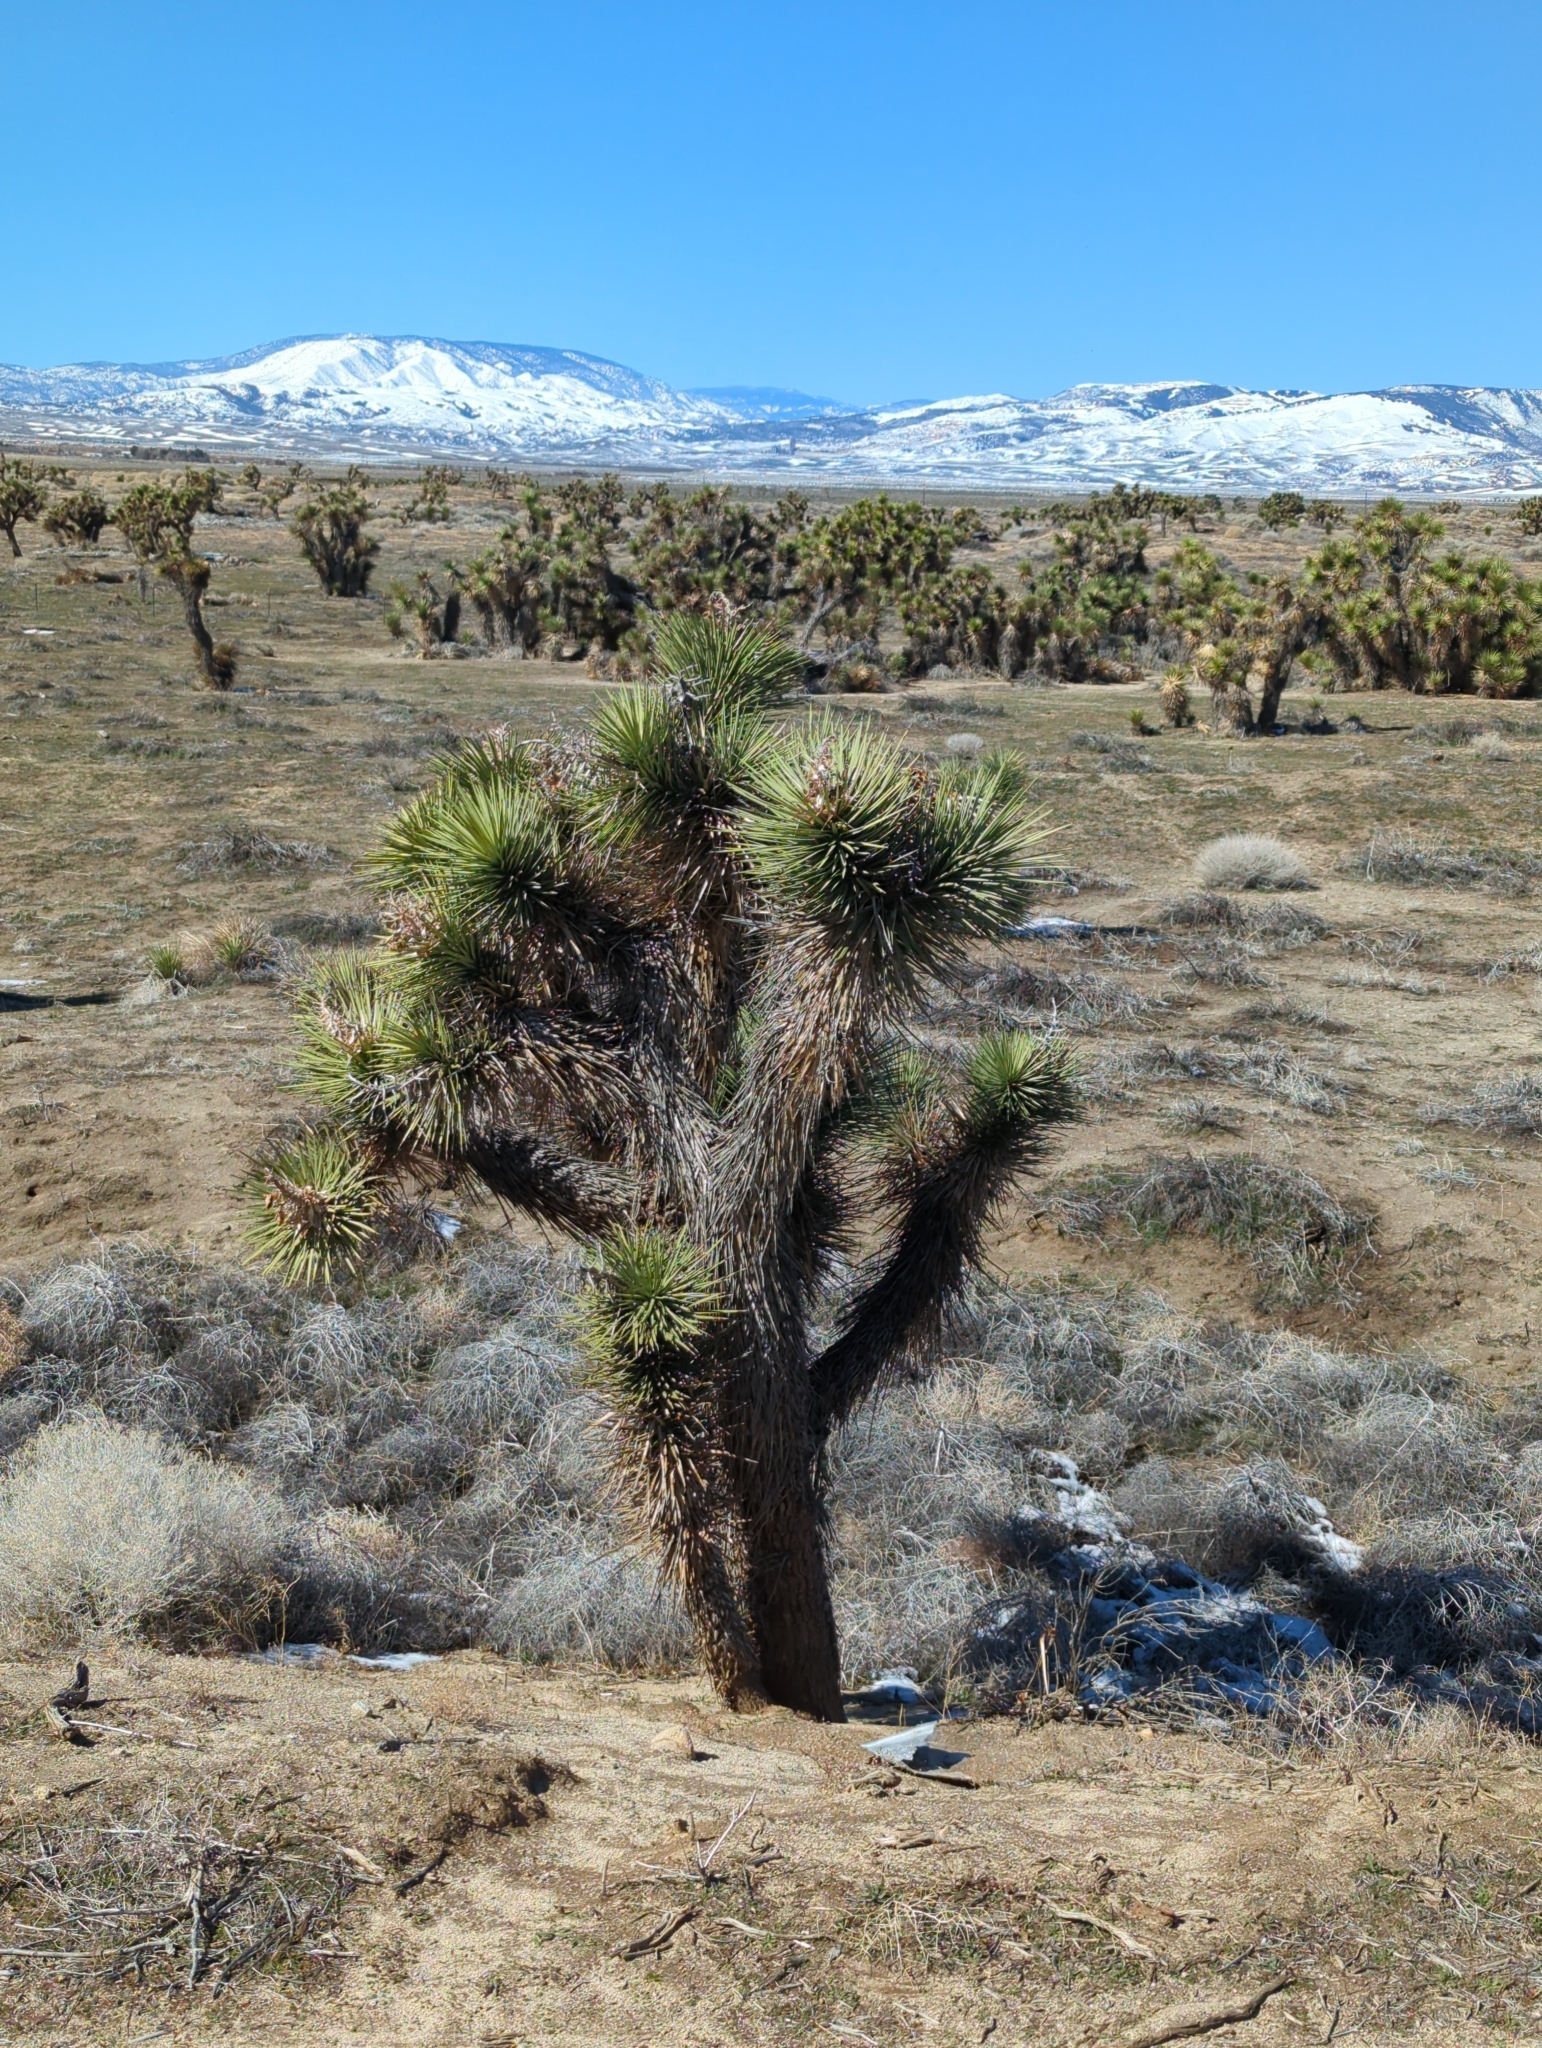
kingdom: Plantae
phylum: Tracheophyta
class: Liliopsida
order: Asparagales
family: Asparagaceae
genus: Yucca
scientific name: Yucca brevifolia
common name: Joshua tree
